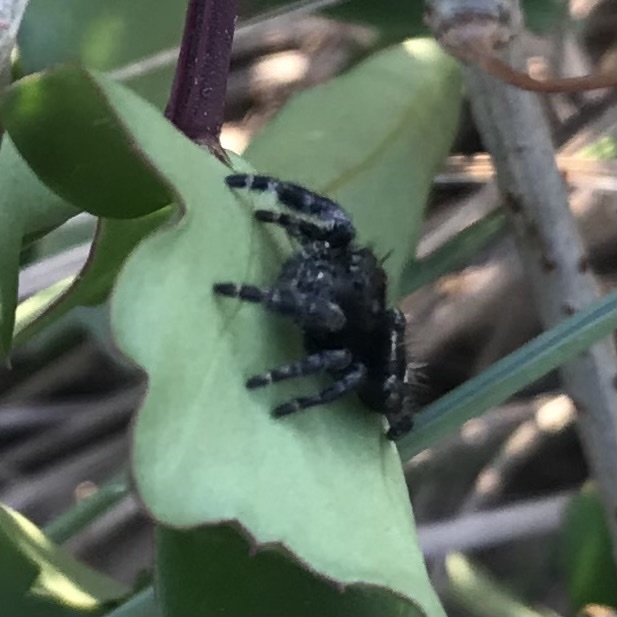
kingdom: Animalia
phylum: Arthropoda
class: Arachnida
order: Araneae
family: Salticidae
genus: Phidippus
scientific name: Phidippus audax
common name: Bold jumper
